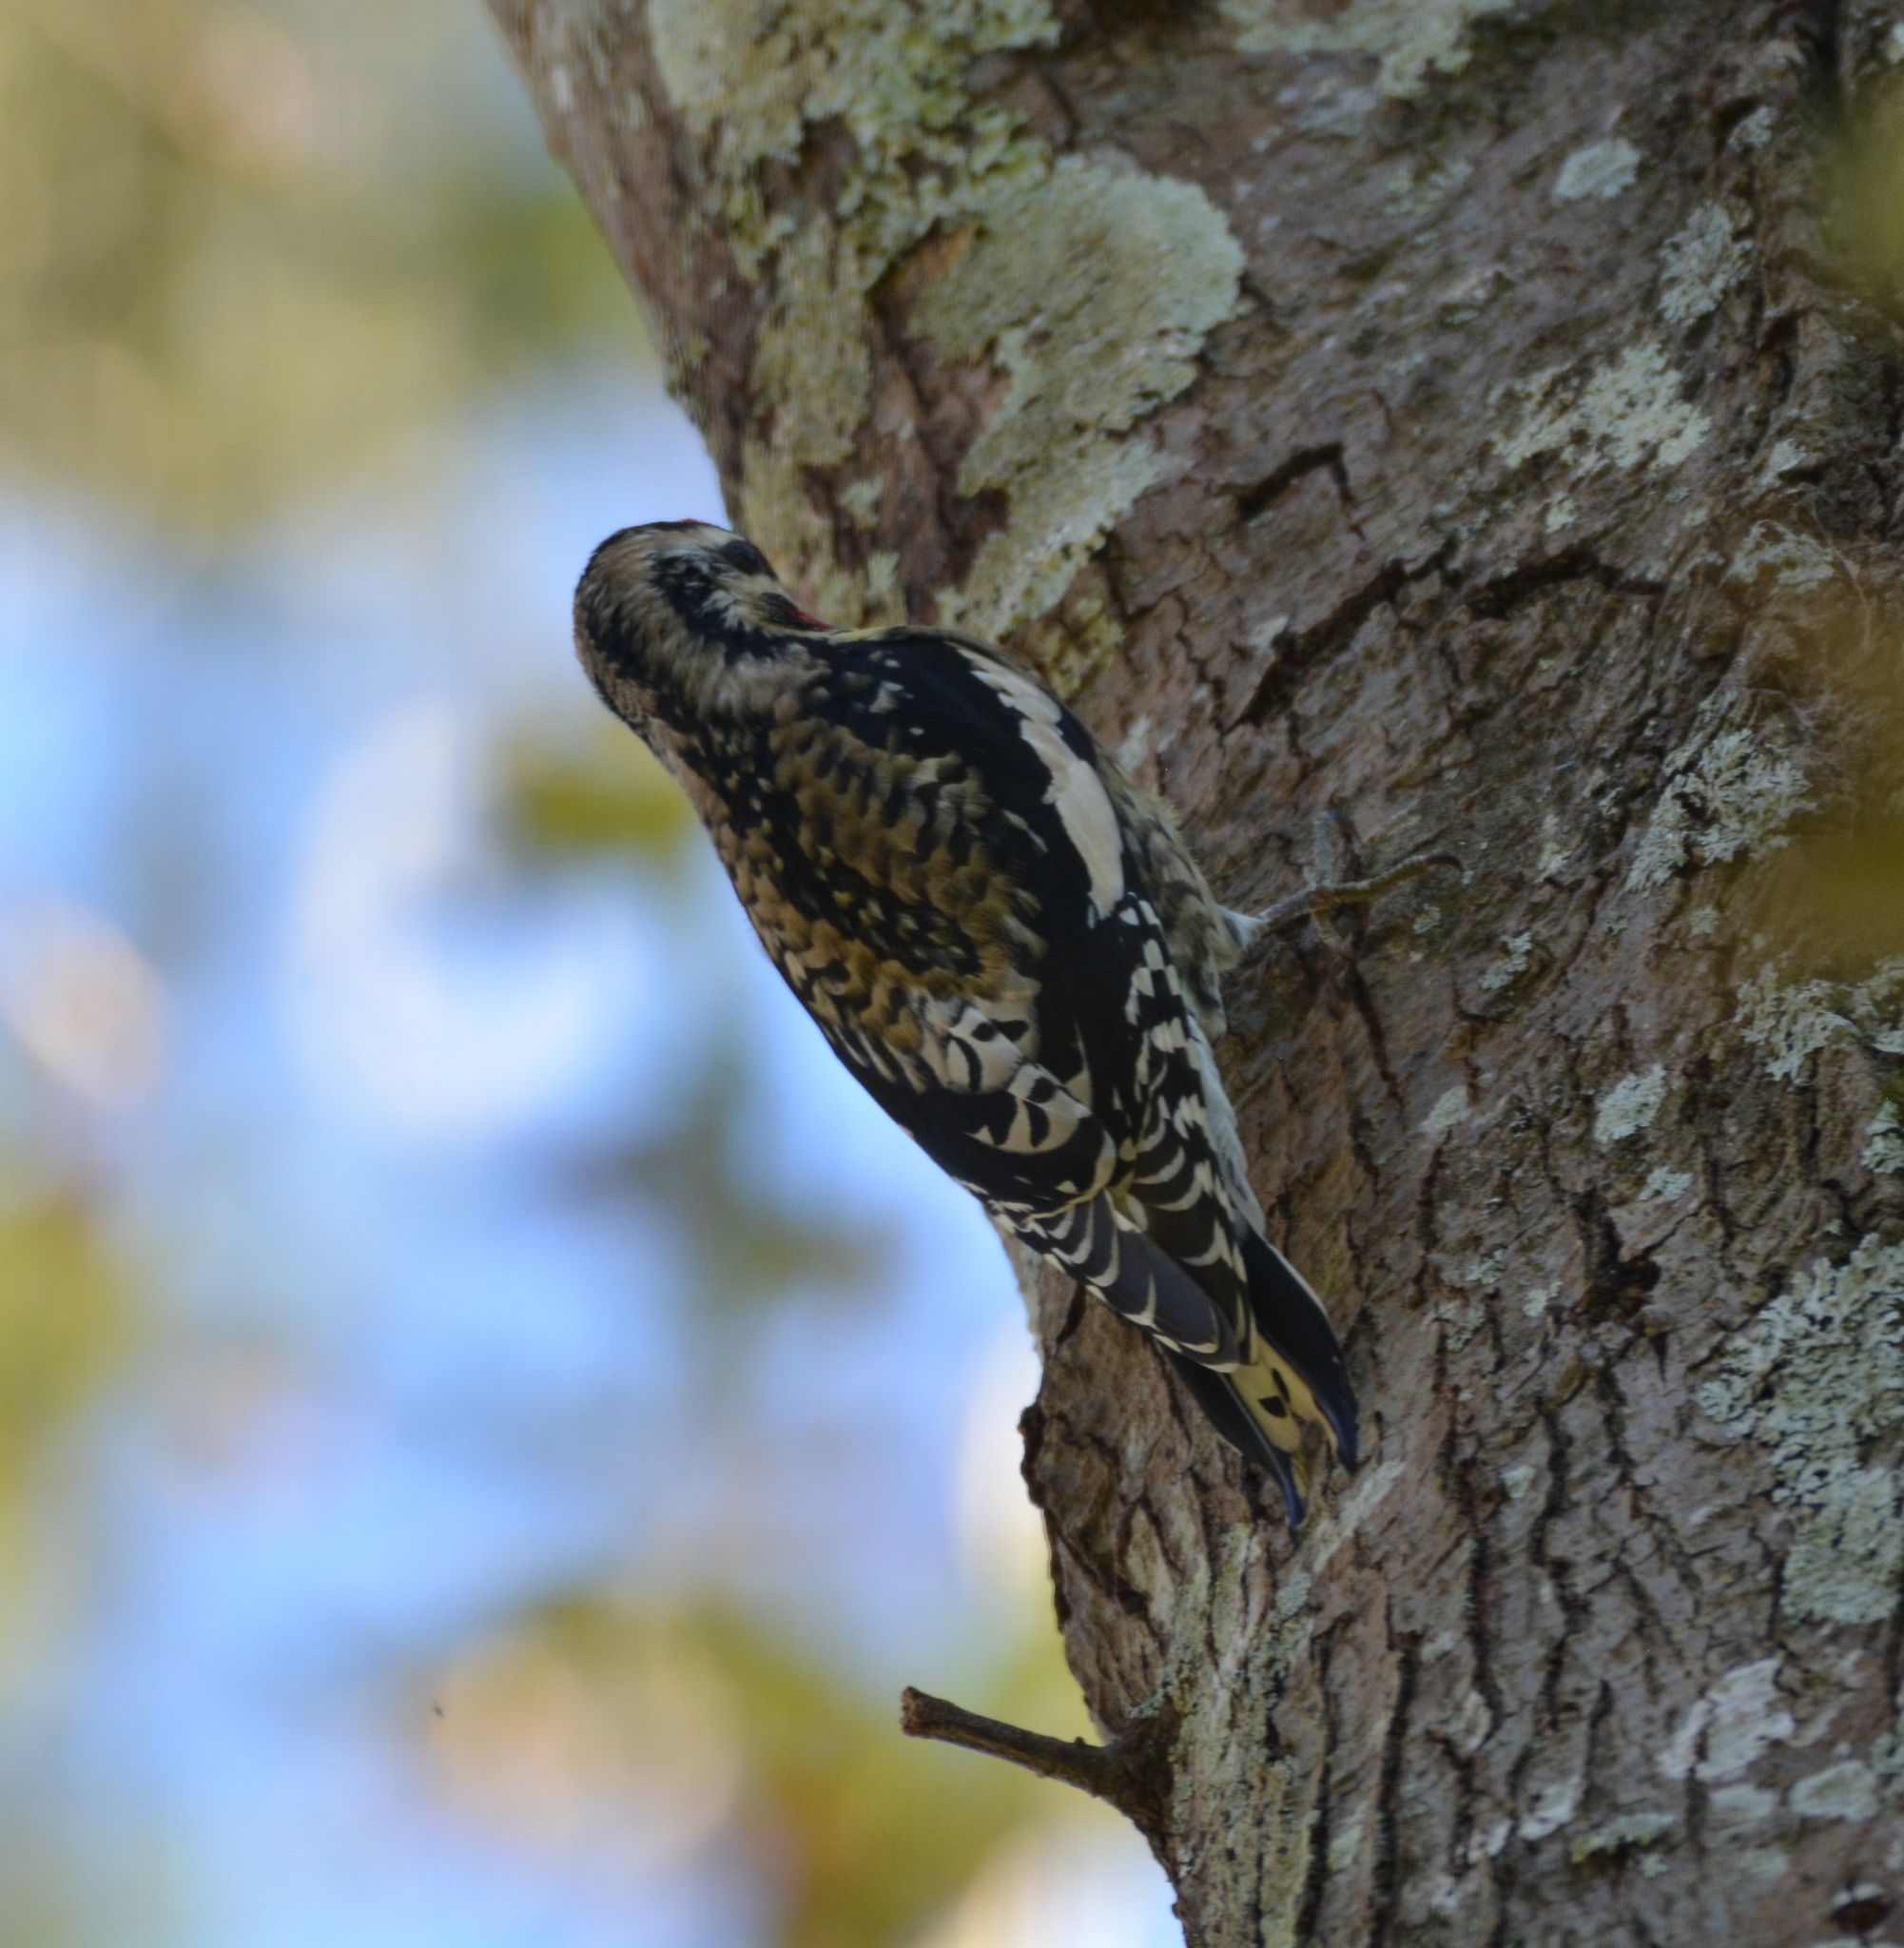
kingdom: Animalia
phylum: Chordata
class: Aves
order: Piciformes
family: Picidae
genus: Sphyrapicus
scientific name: Sphyrapicus varius
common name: Yellow-bellied sapsucker
